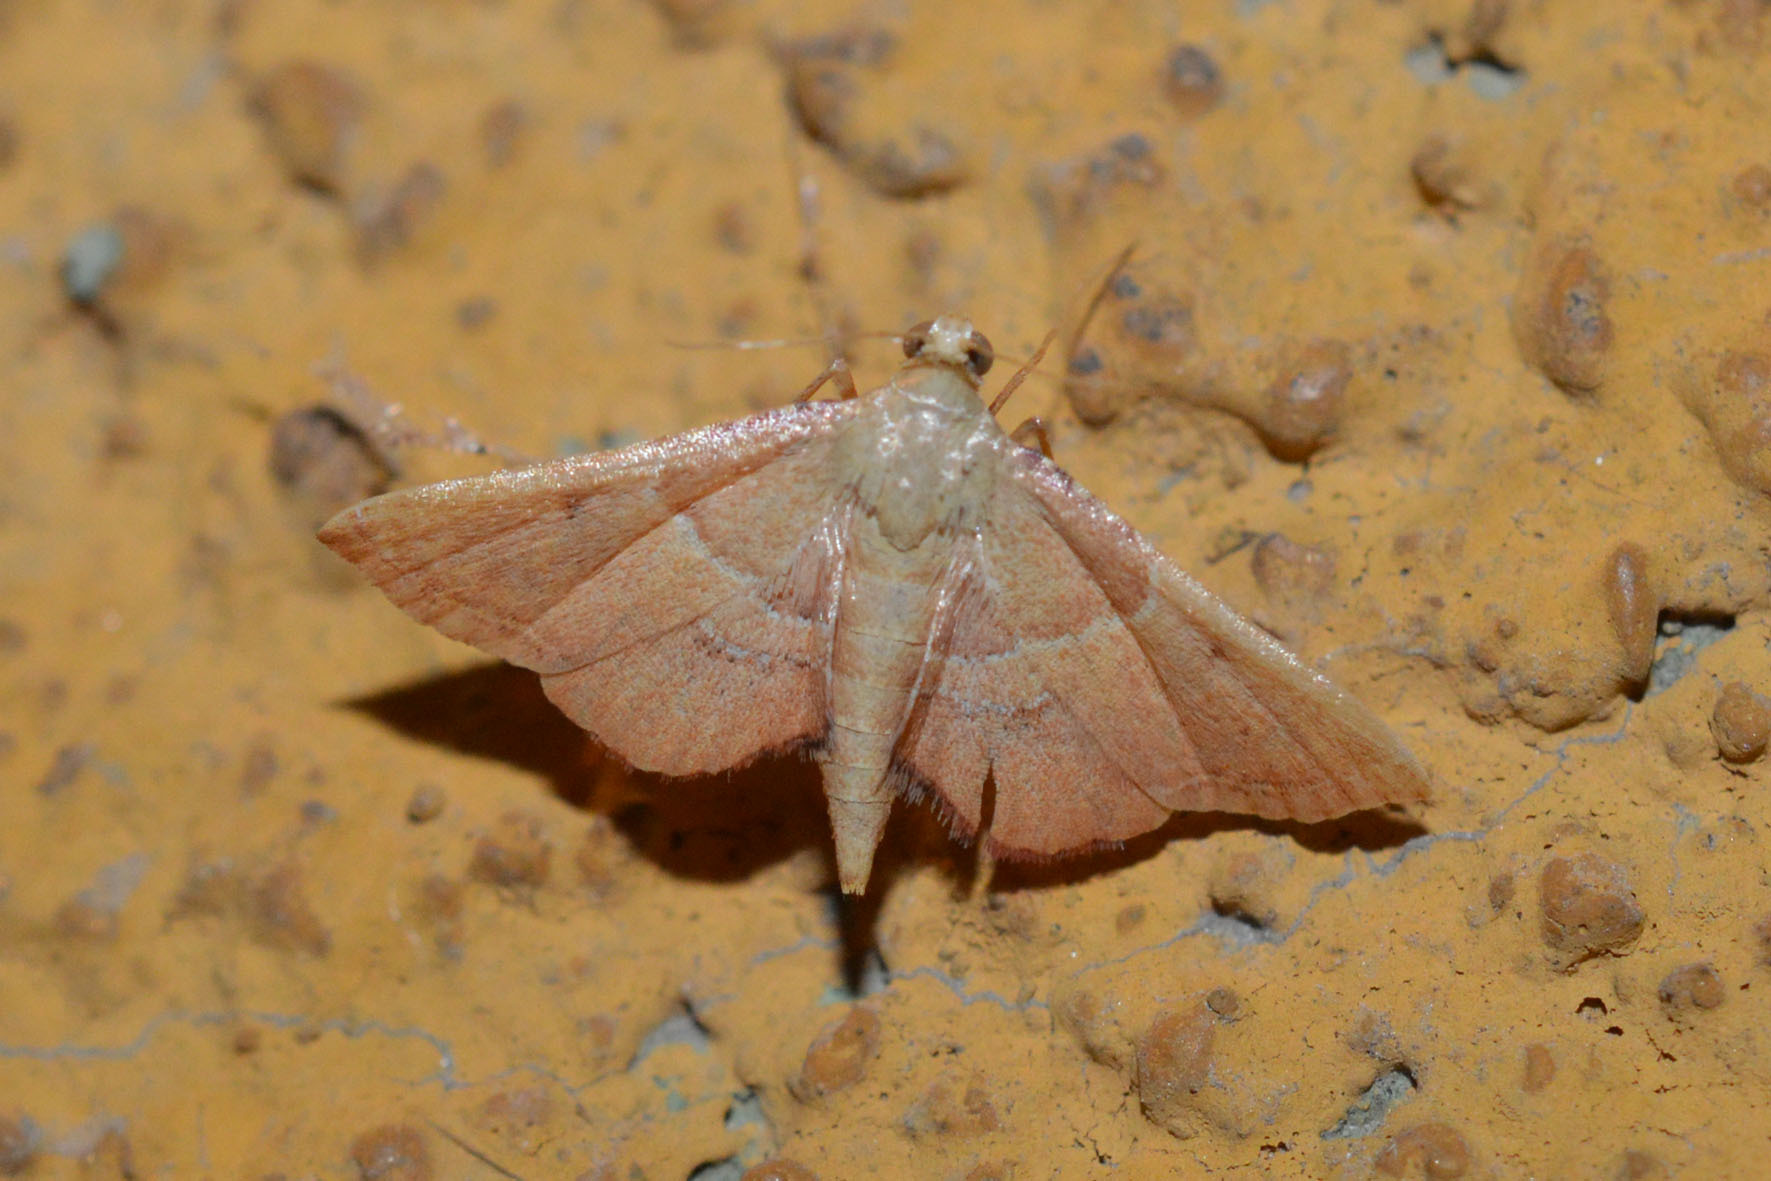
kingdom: Animalia
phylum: Arthropoda
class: Insecta
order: Lepidoptera
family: Pyralidae
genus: Endotricha
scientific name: Endotricha flammealis
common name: Rosy tabby
